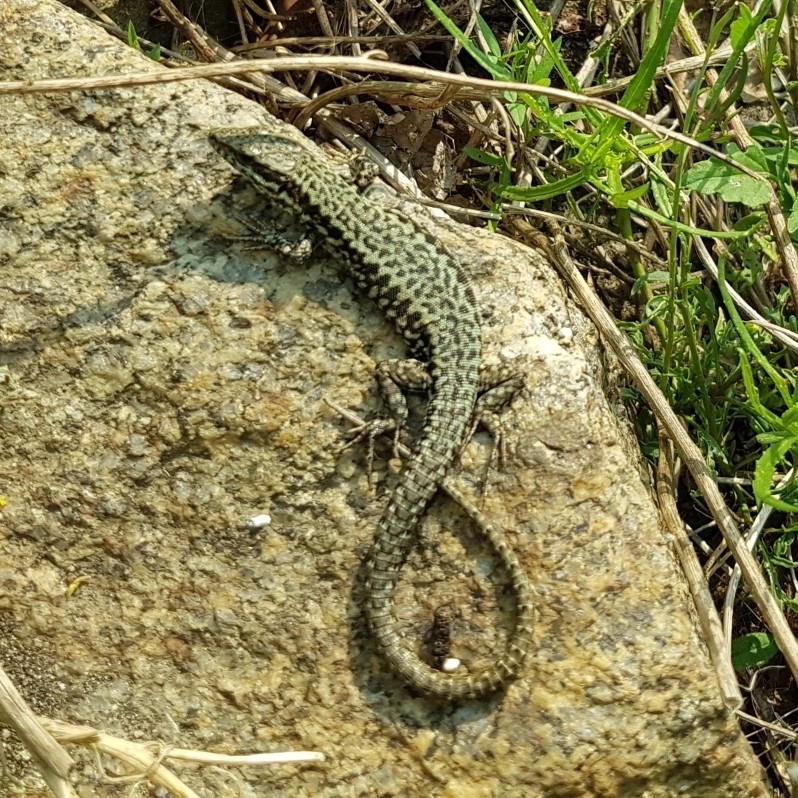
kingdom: Animalia
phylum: Chordata
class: Squamata
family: Lacertidae
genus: Podarcis
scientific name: Podarcis muralis
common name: Common wall lizard
